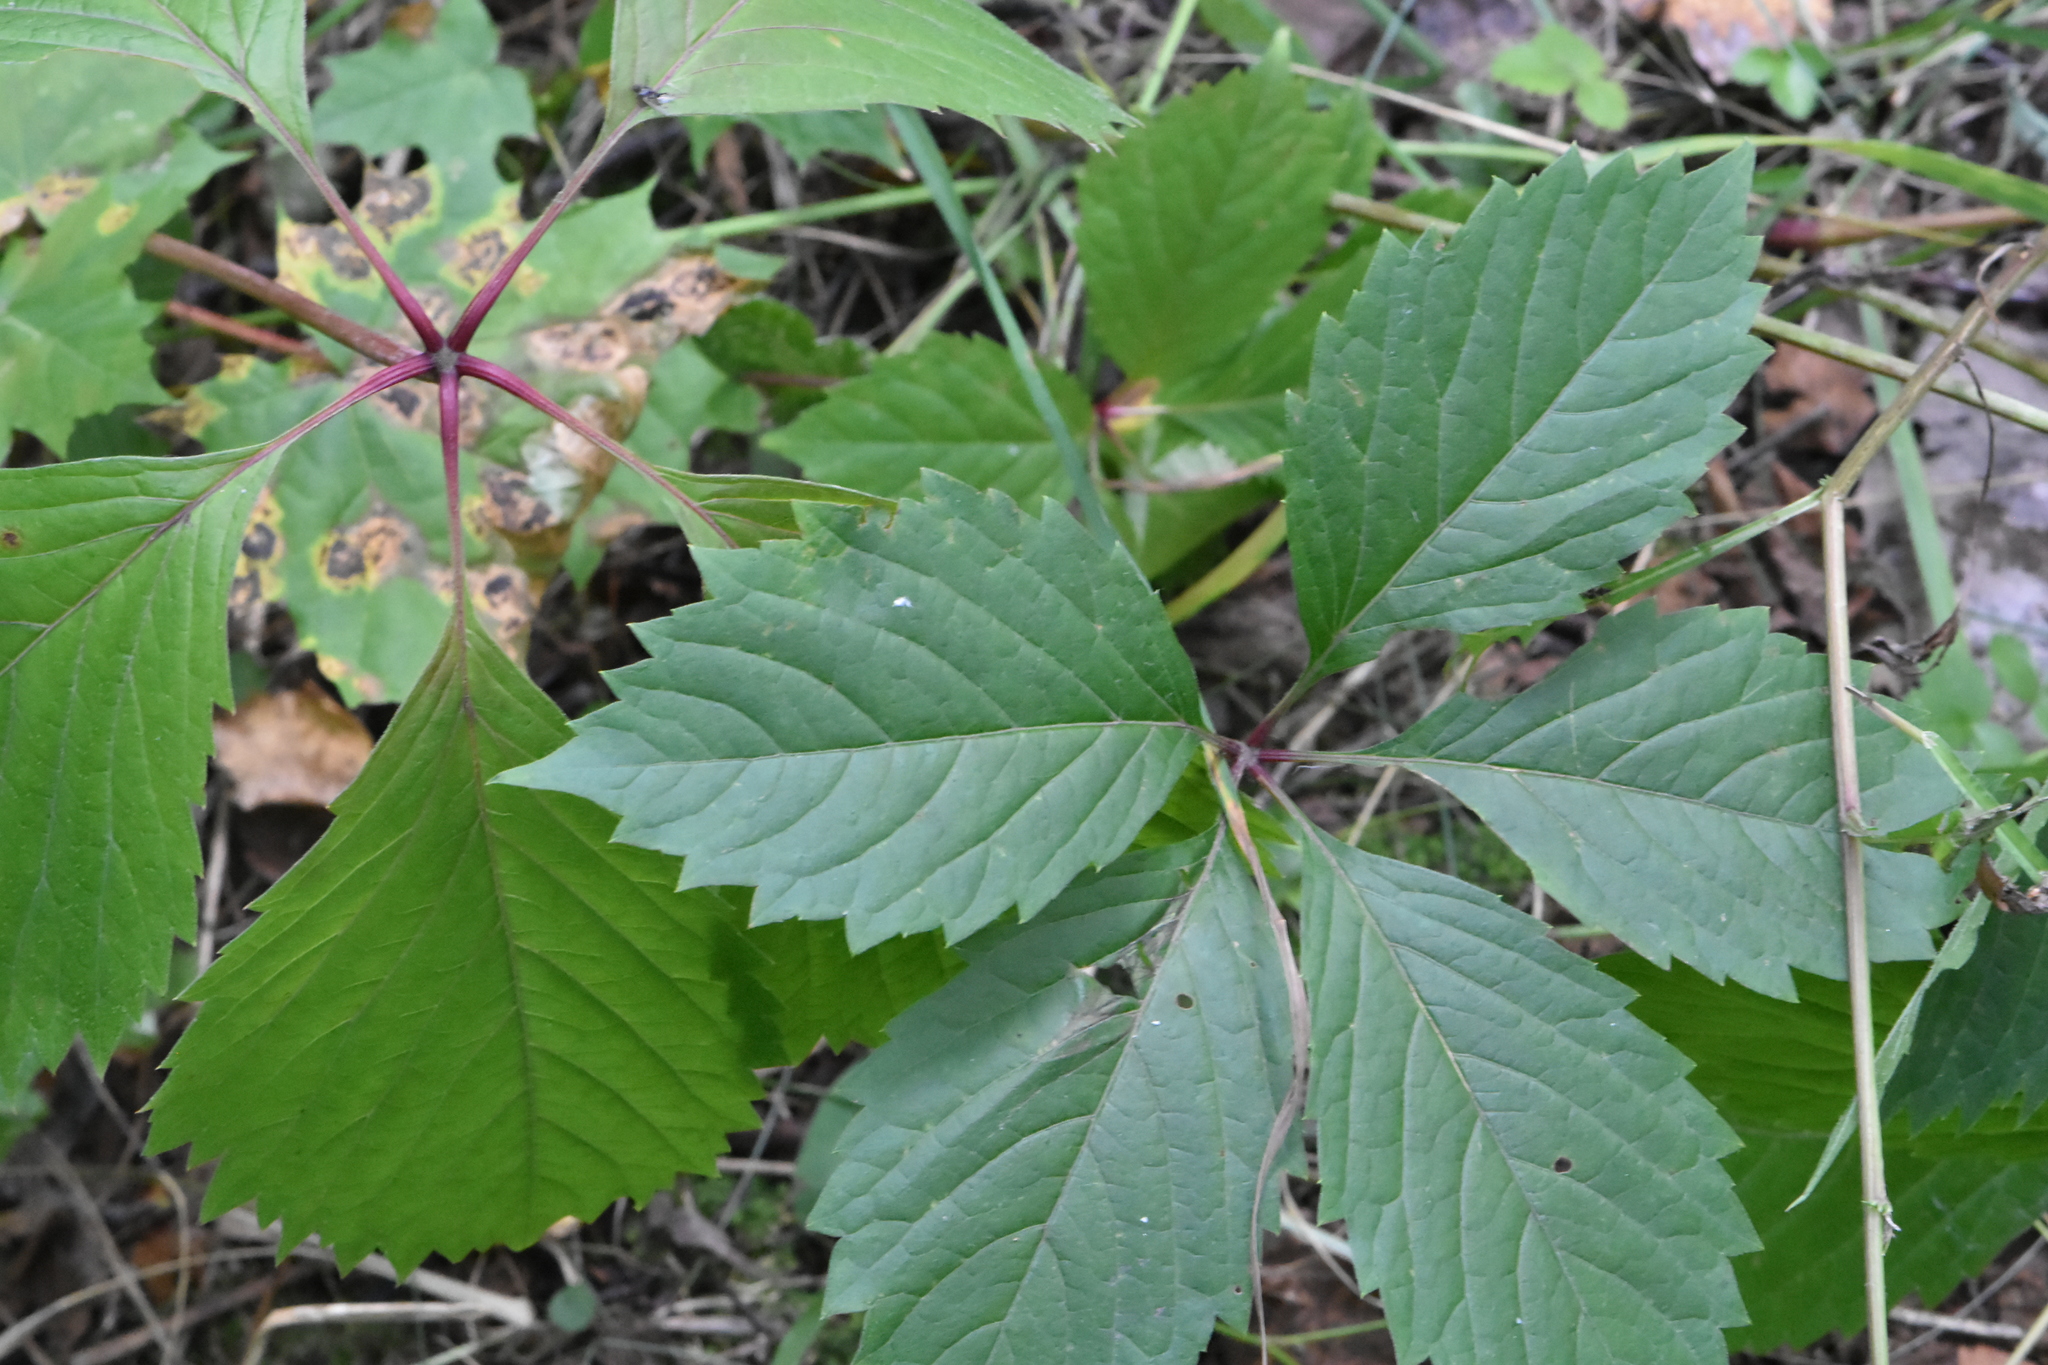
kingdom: Plantae
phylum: Tracheophyta
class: Magnoliopsida
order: Vitales
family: Vitaceae
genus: Parthenocissus
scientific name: Parthenocissus inserta
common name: False virginia-creeper
